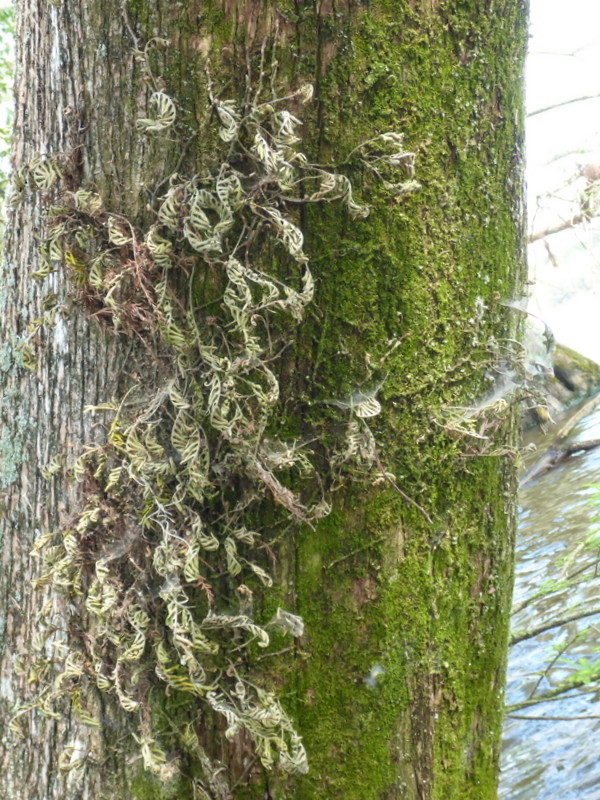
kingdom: Plantae
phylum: Tracheophyta
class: Polypodiopsida
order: Polypodiales
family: Polypodiaceae
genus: Pleopeltis
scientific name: Pleopeltis michauxiana
